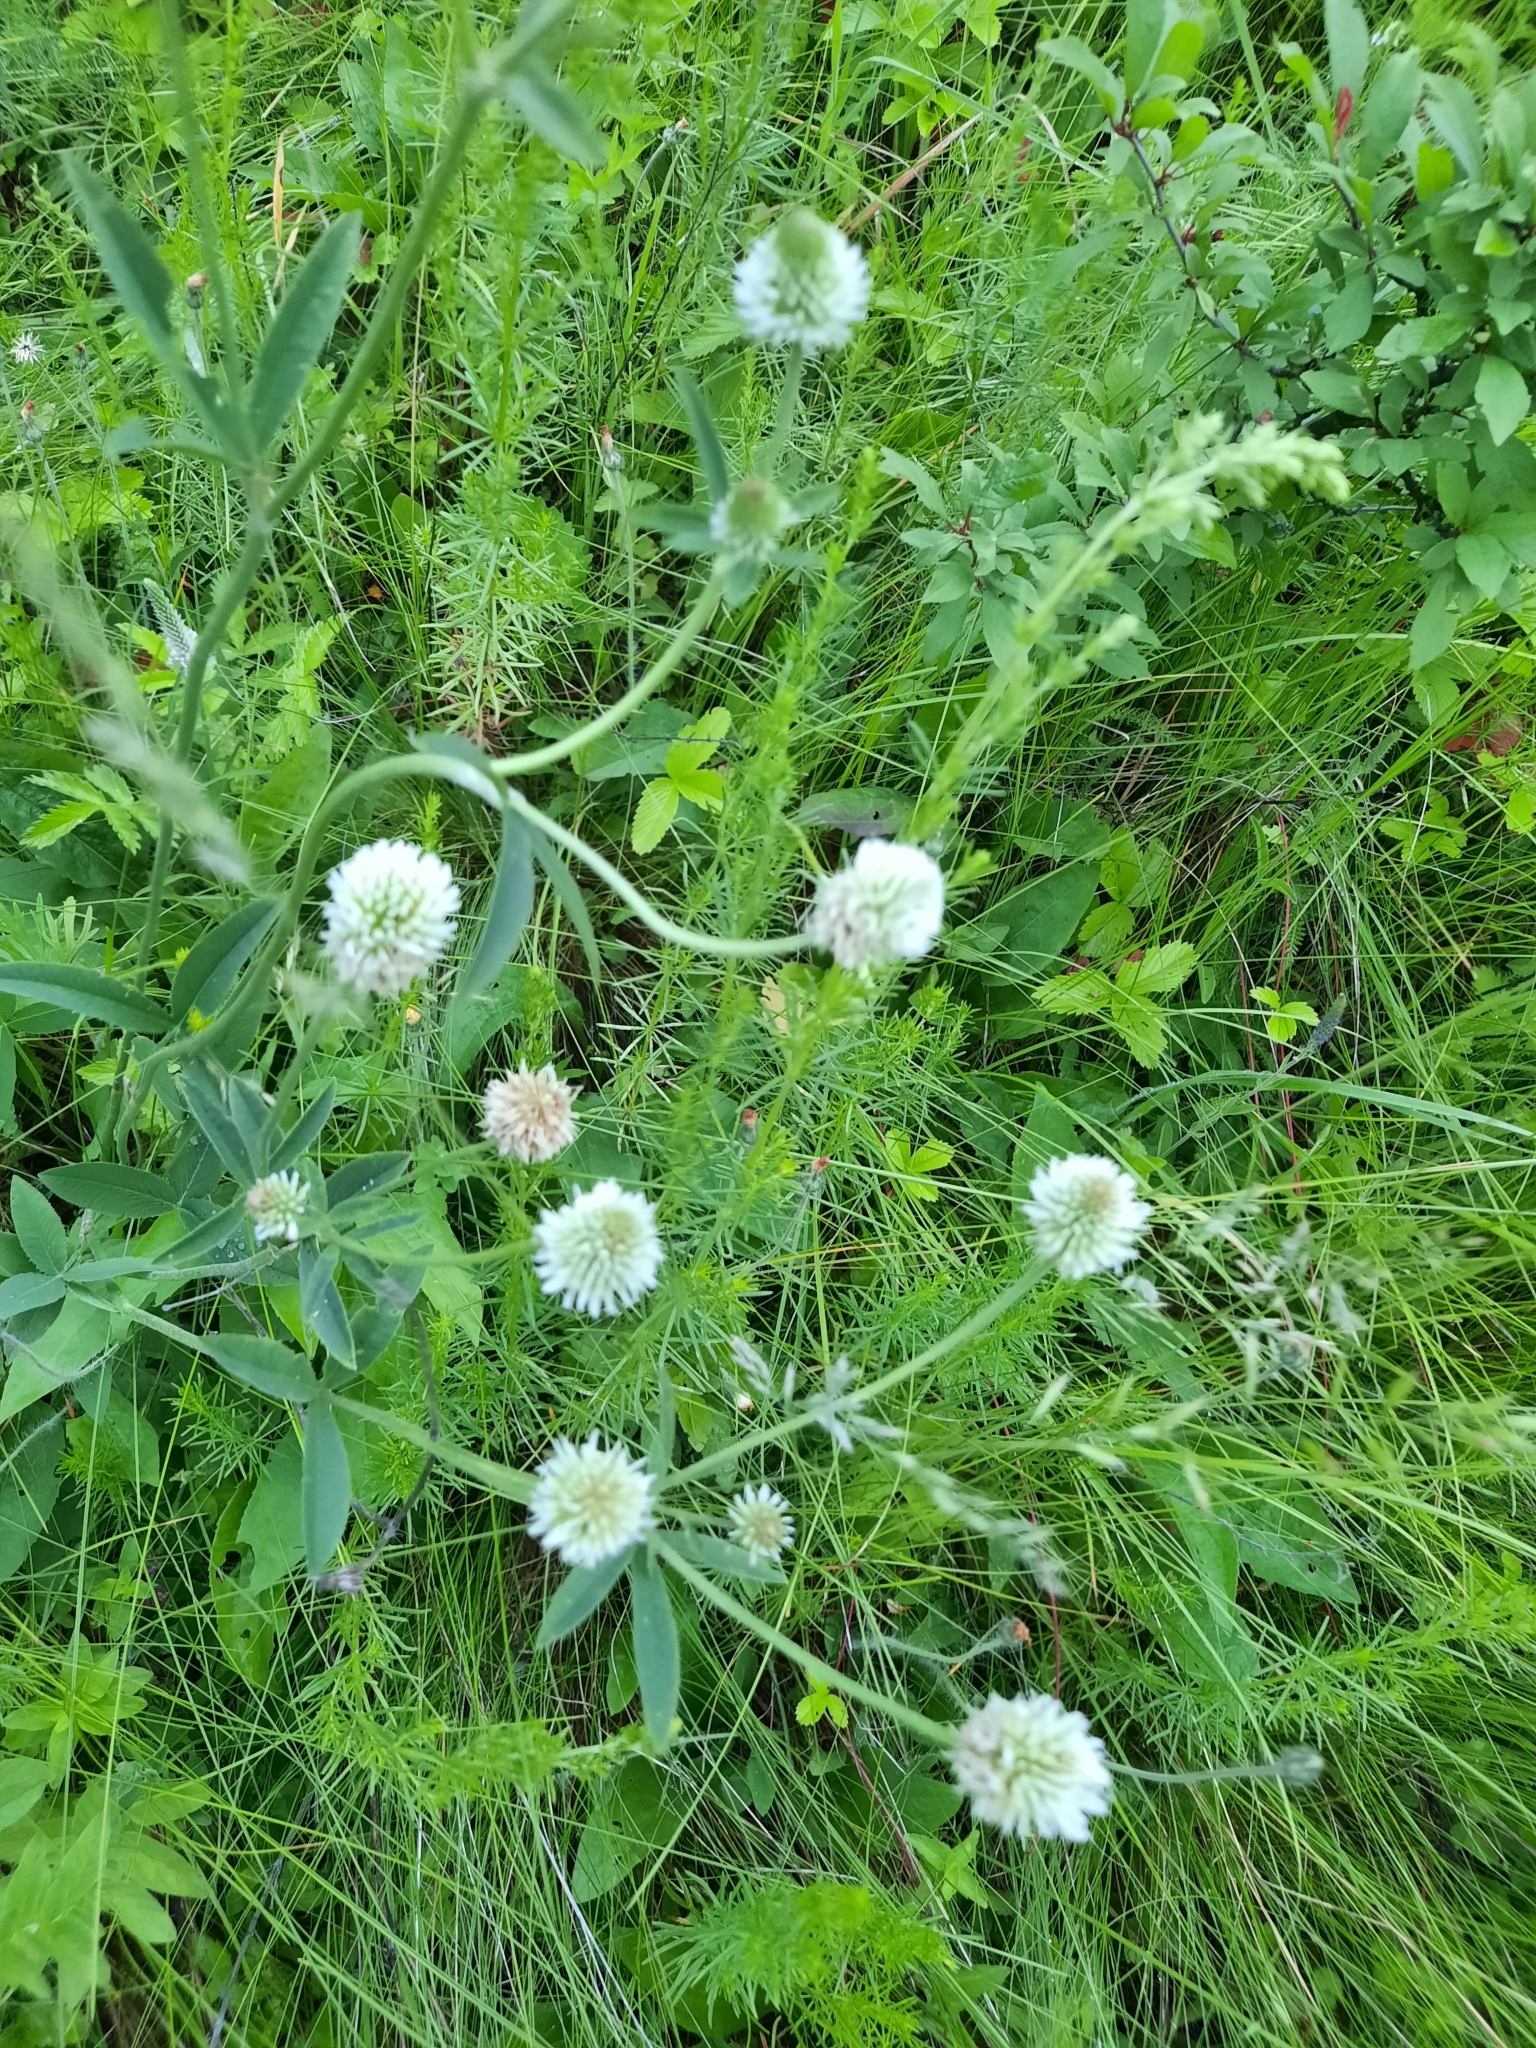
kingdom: Plantae
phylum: Tracheophyta
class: Magnoliopsida
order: Fabales
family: Fabaceae
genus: Trifolium
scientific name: Trifolium montanum
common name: Mountain clover
